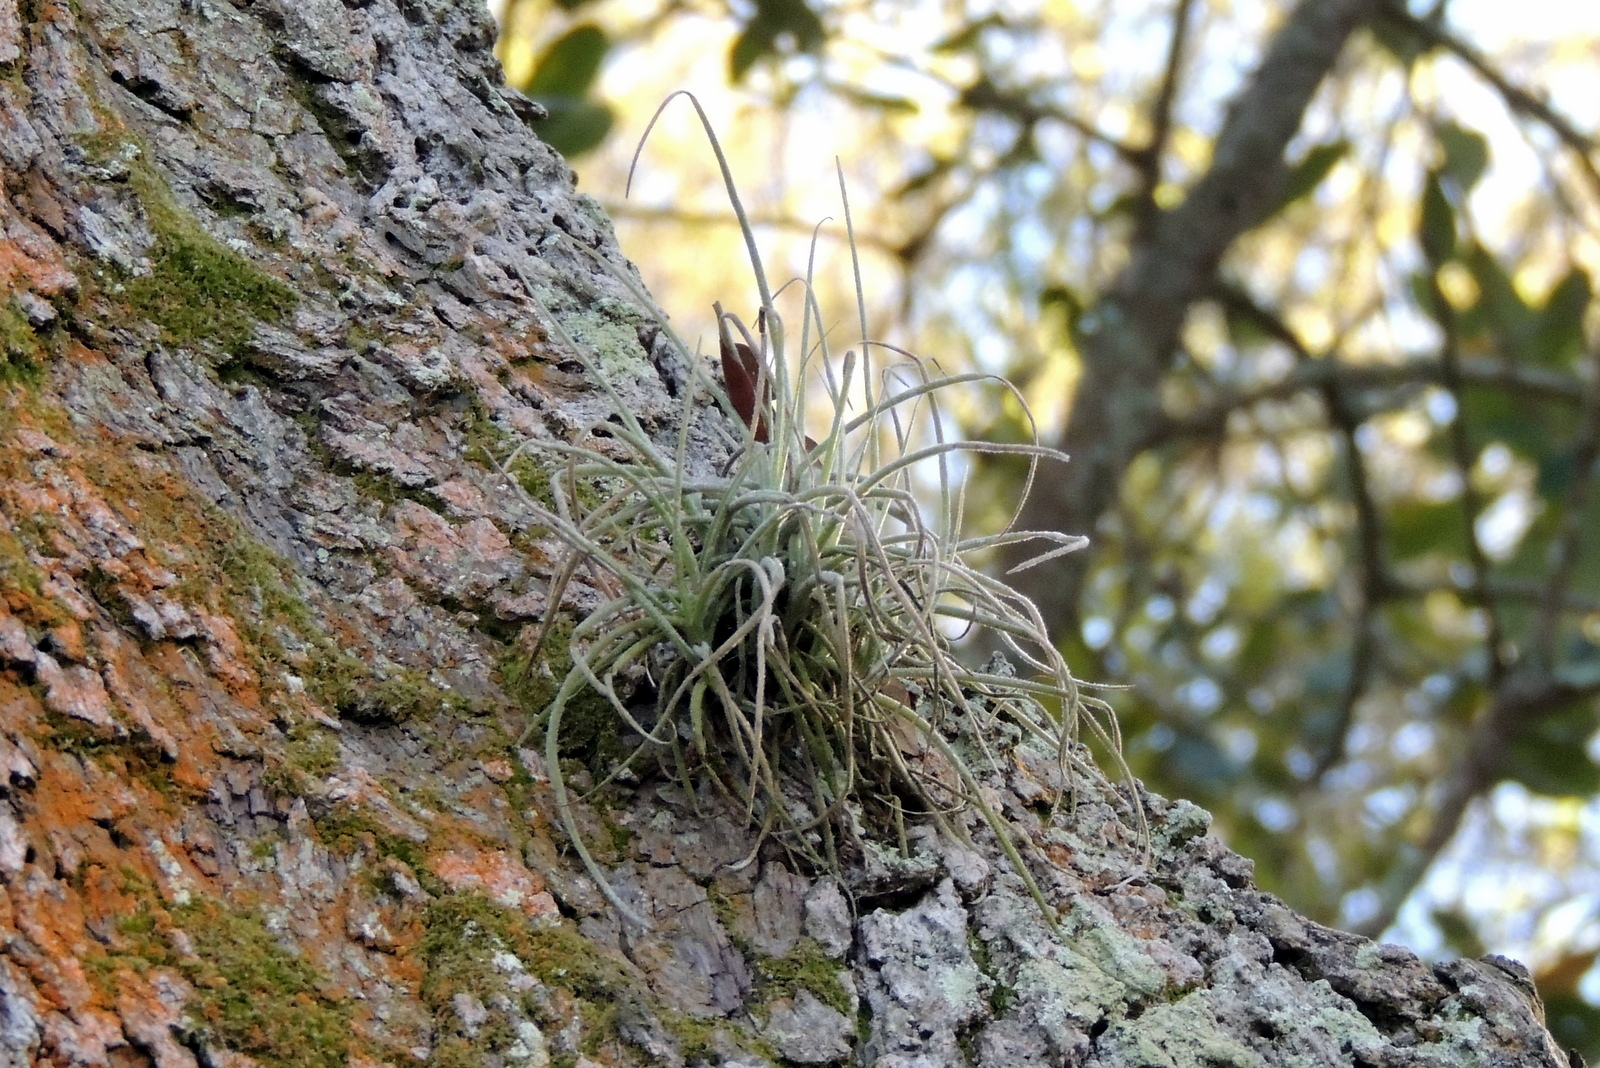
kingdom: Plantae
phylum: Tracheophyta
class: Liliopsida
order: Poales
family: Bromeliaceae
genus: Tillandsia
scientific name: Tillandsia recurvata
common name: Small ballmoss
